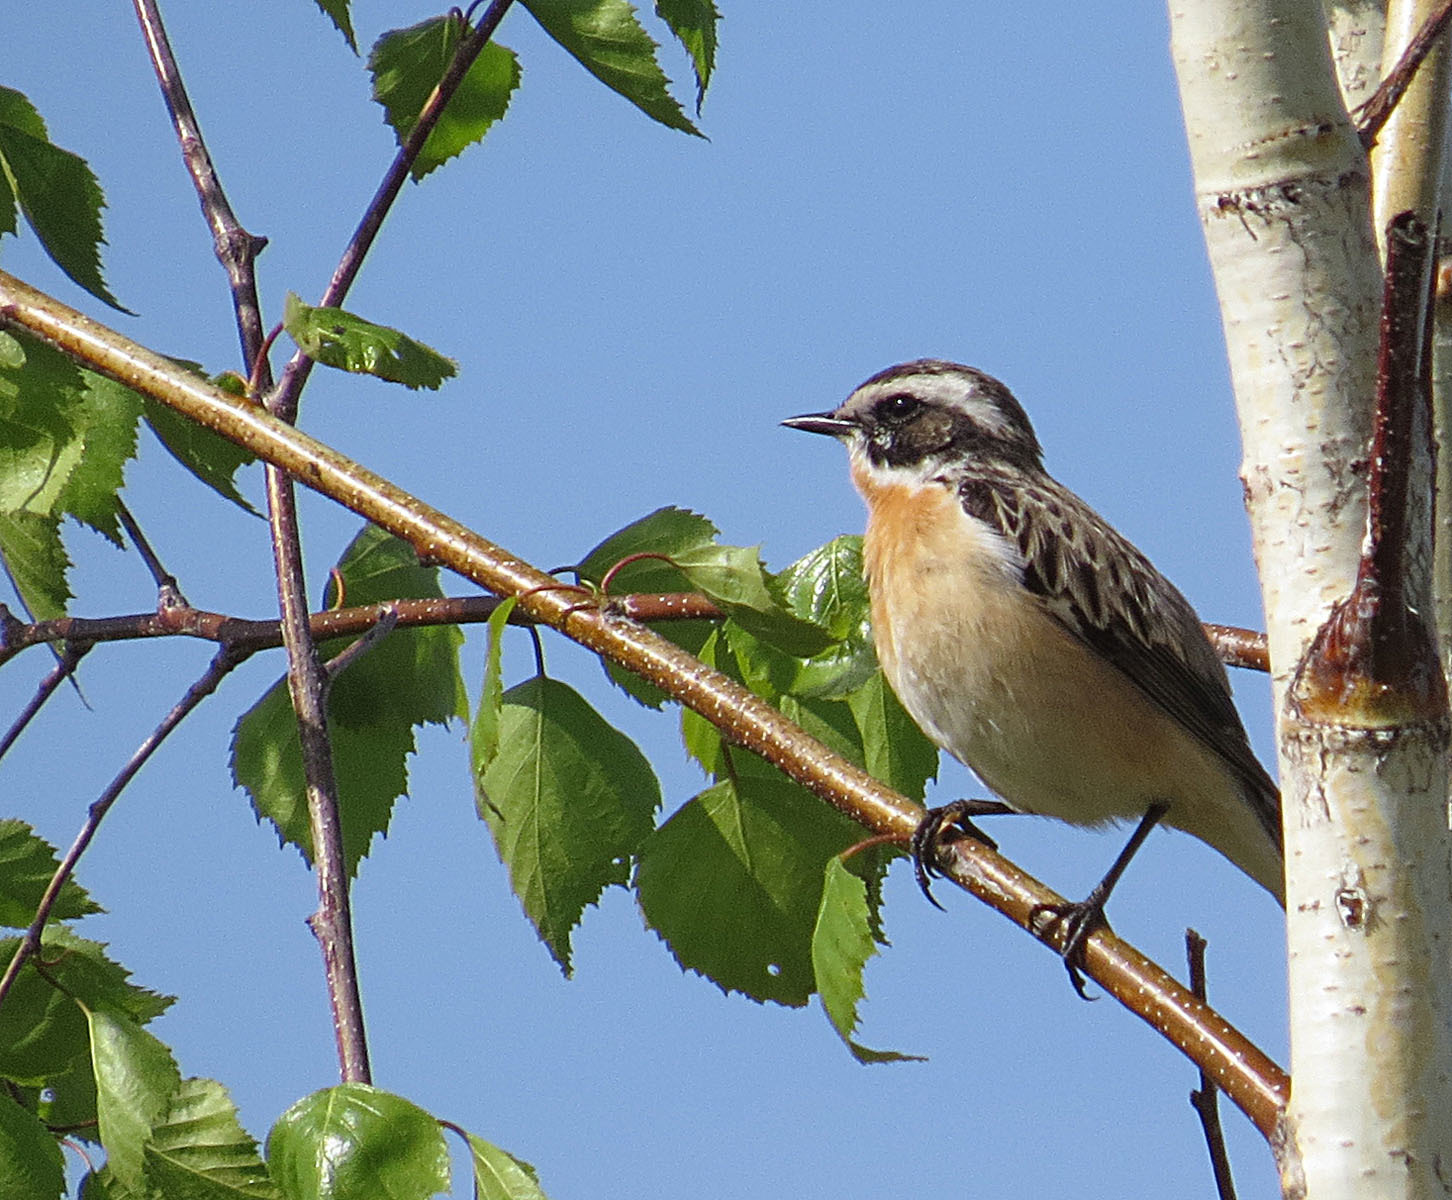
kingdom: Animalia
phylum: Chordata
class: Aves
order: Passeriformes
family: Muscicapidae
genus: Saxicola
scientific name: Saxicola rubetra
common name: Whinchat
